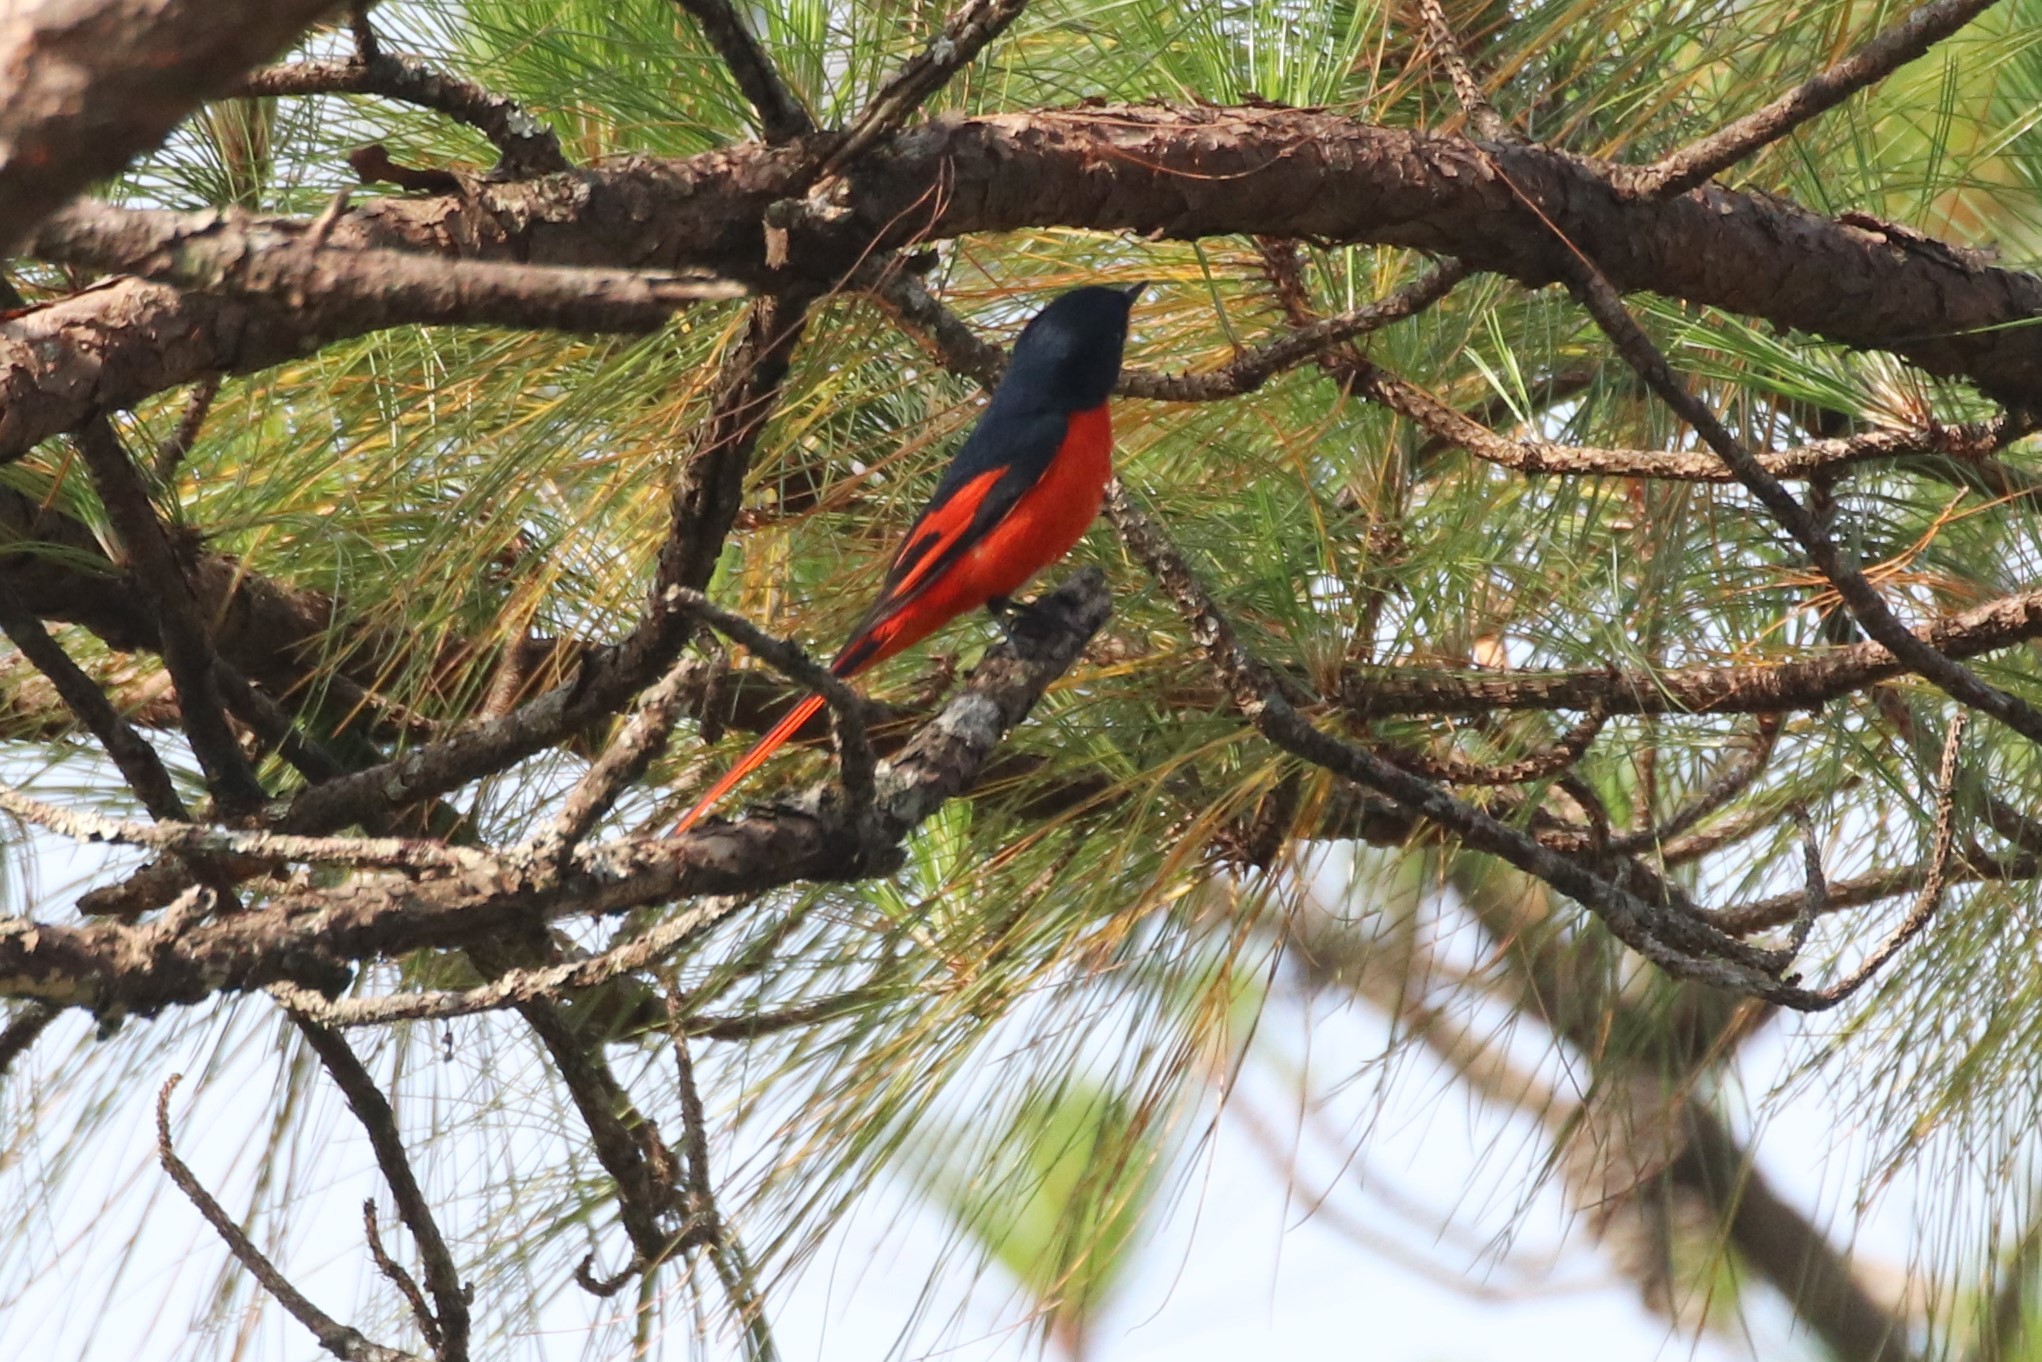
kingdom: Animalia
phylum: Chordata
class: Aves
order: Passeriformes
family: Campephagidae
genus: Pericrocotus
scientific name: Pericrocotus ethologus
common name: Long-tailed minivet
